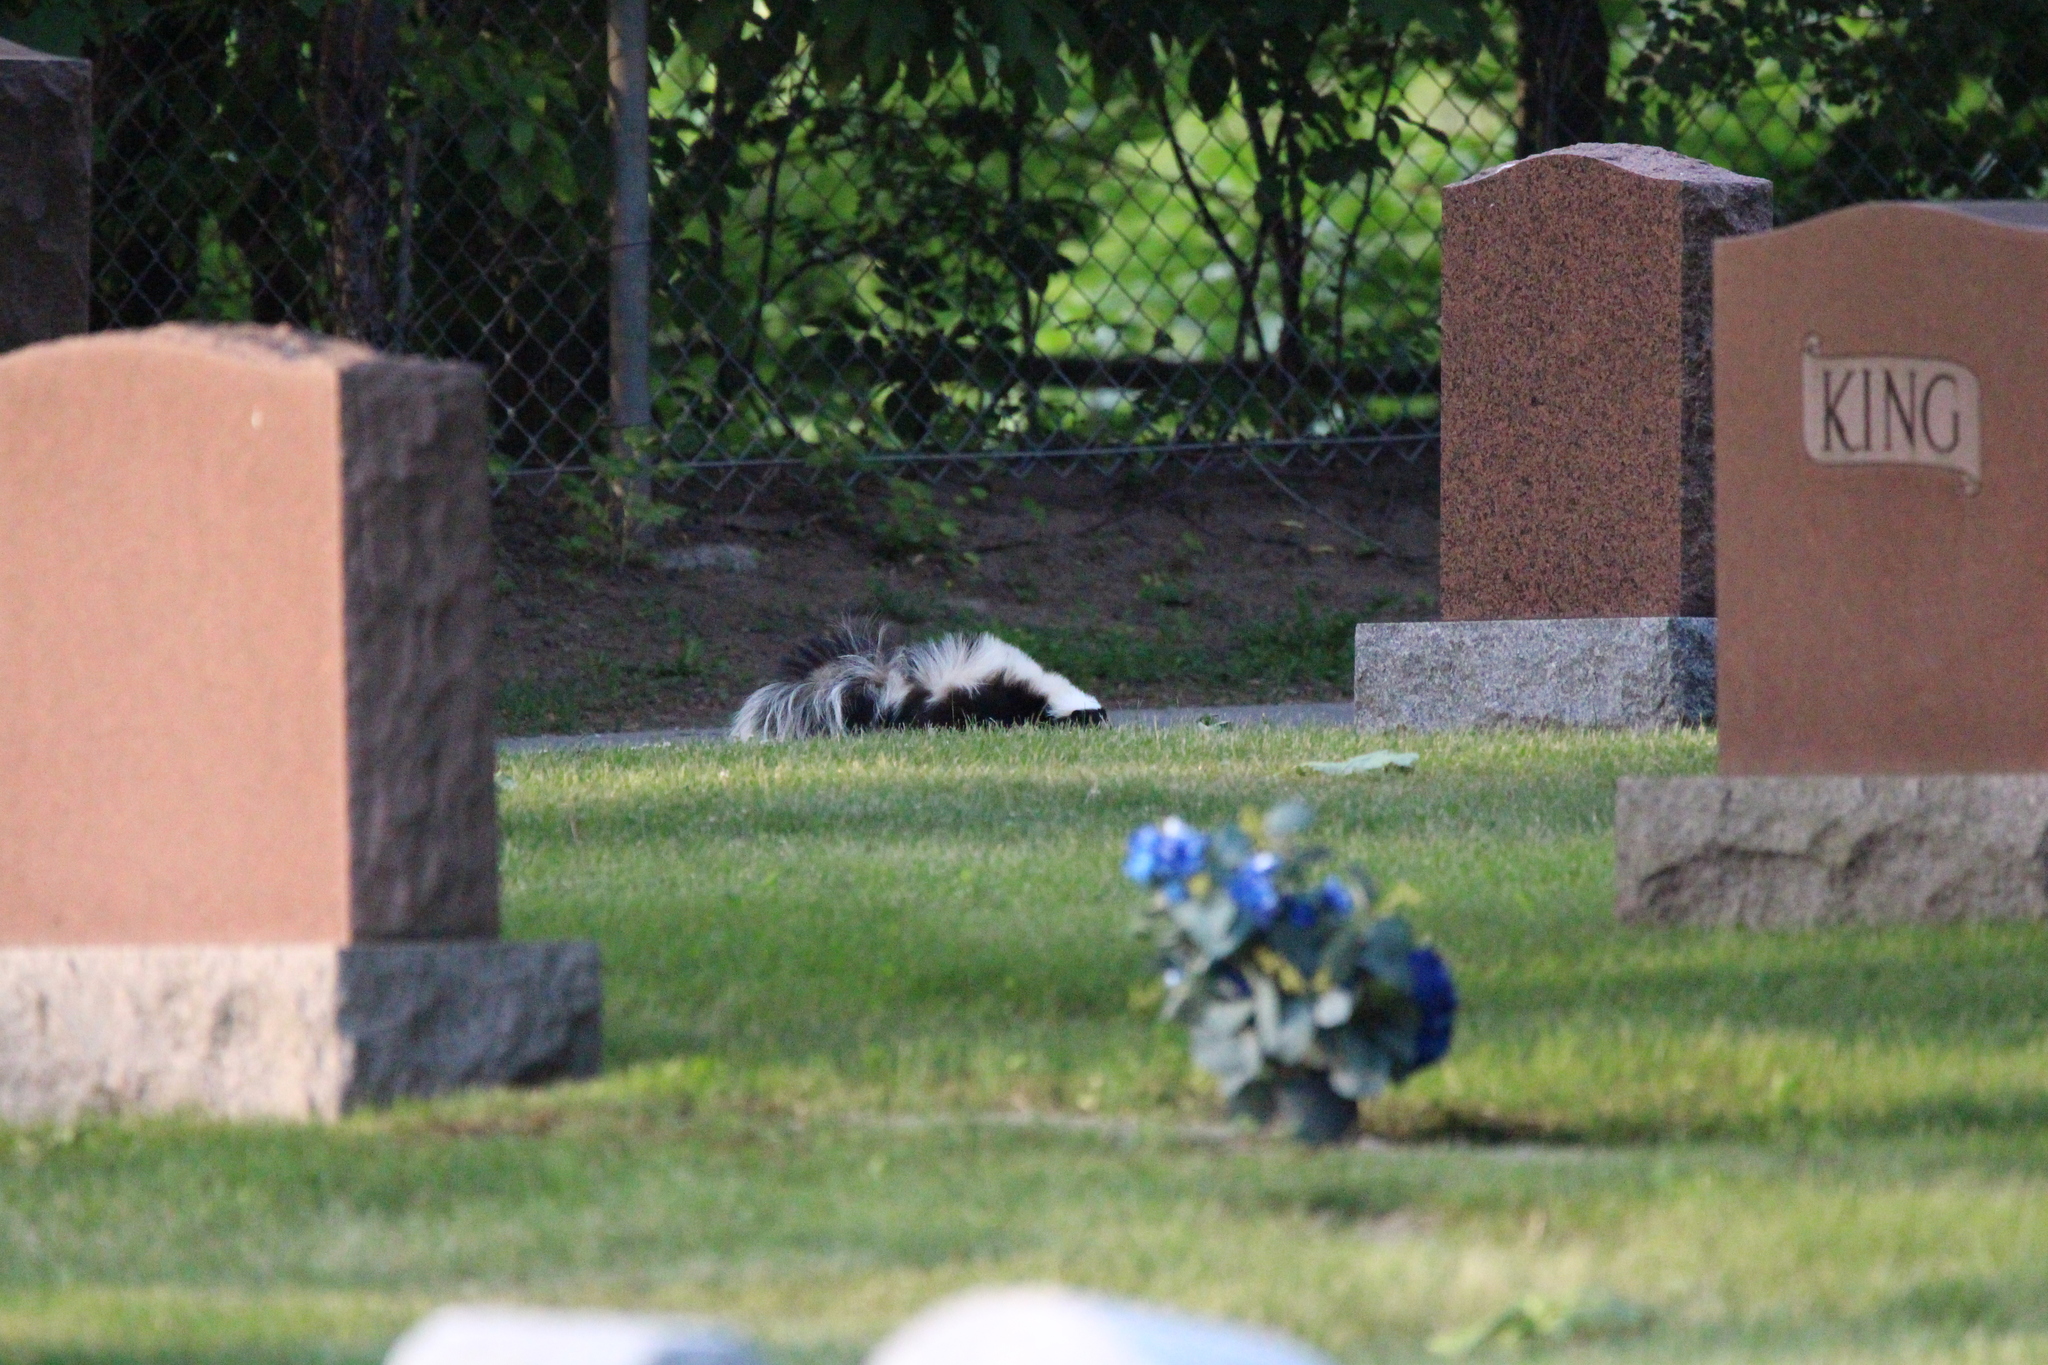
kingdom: Animalia
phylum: Chordata
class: Mammalia
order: Carnivora
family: Mephitidae
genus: Mephitis
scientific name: Mephitis mephitis
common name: Striped skunk
